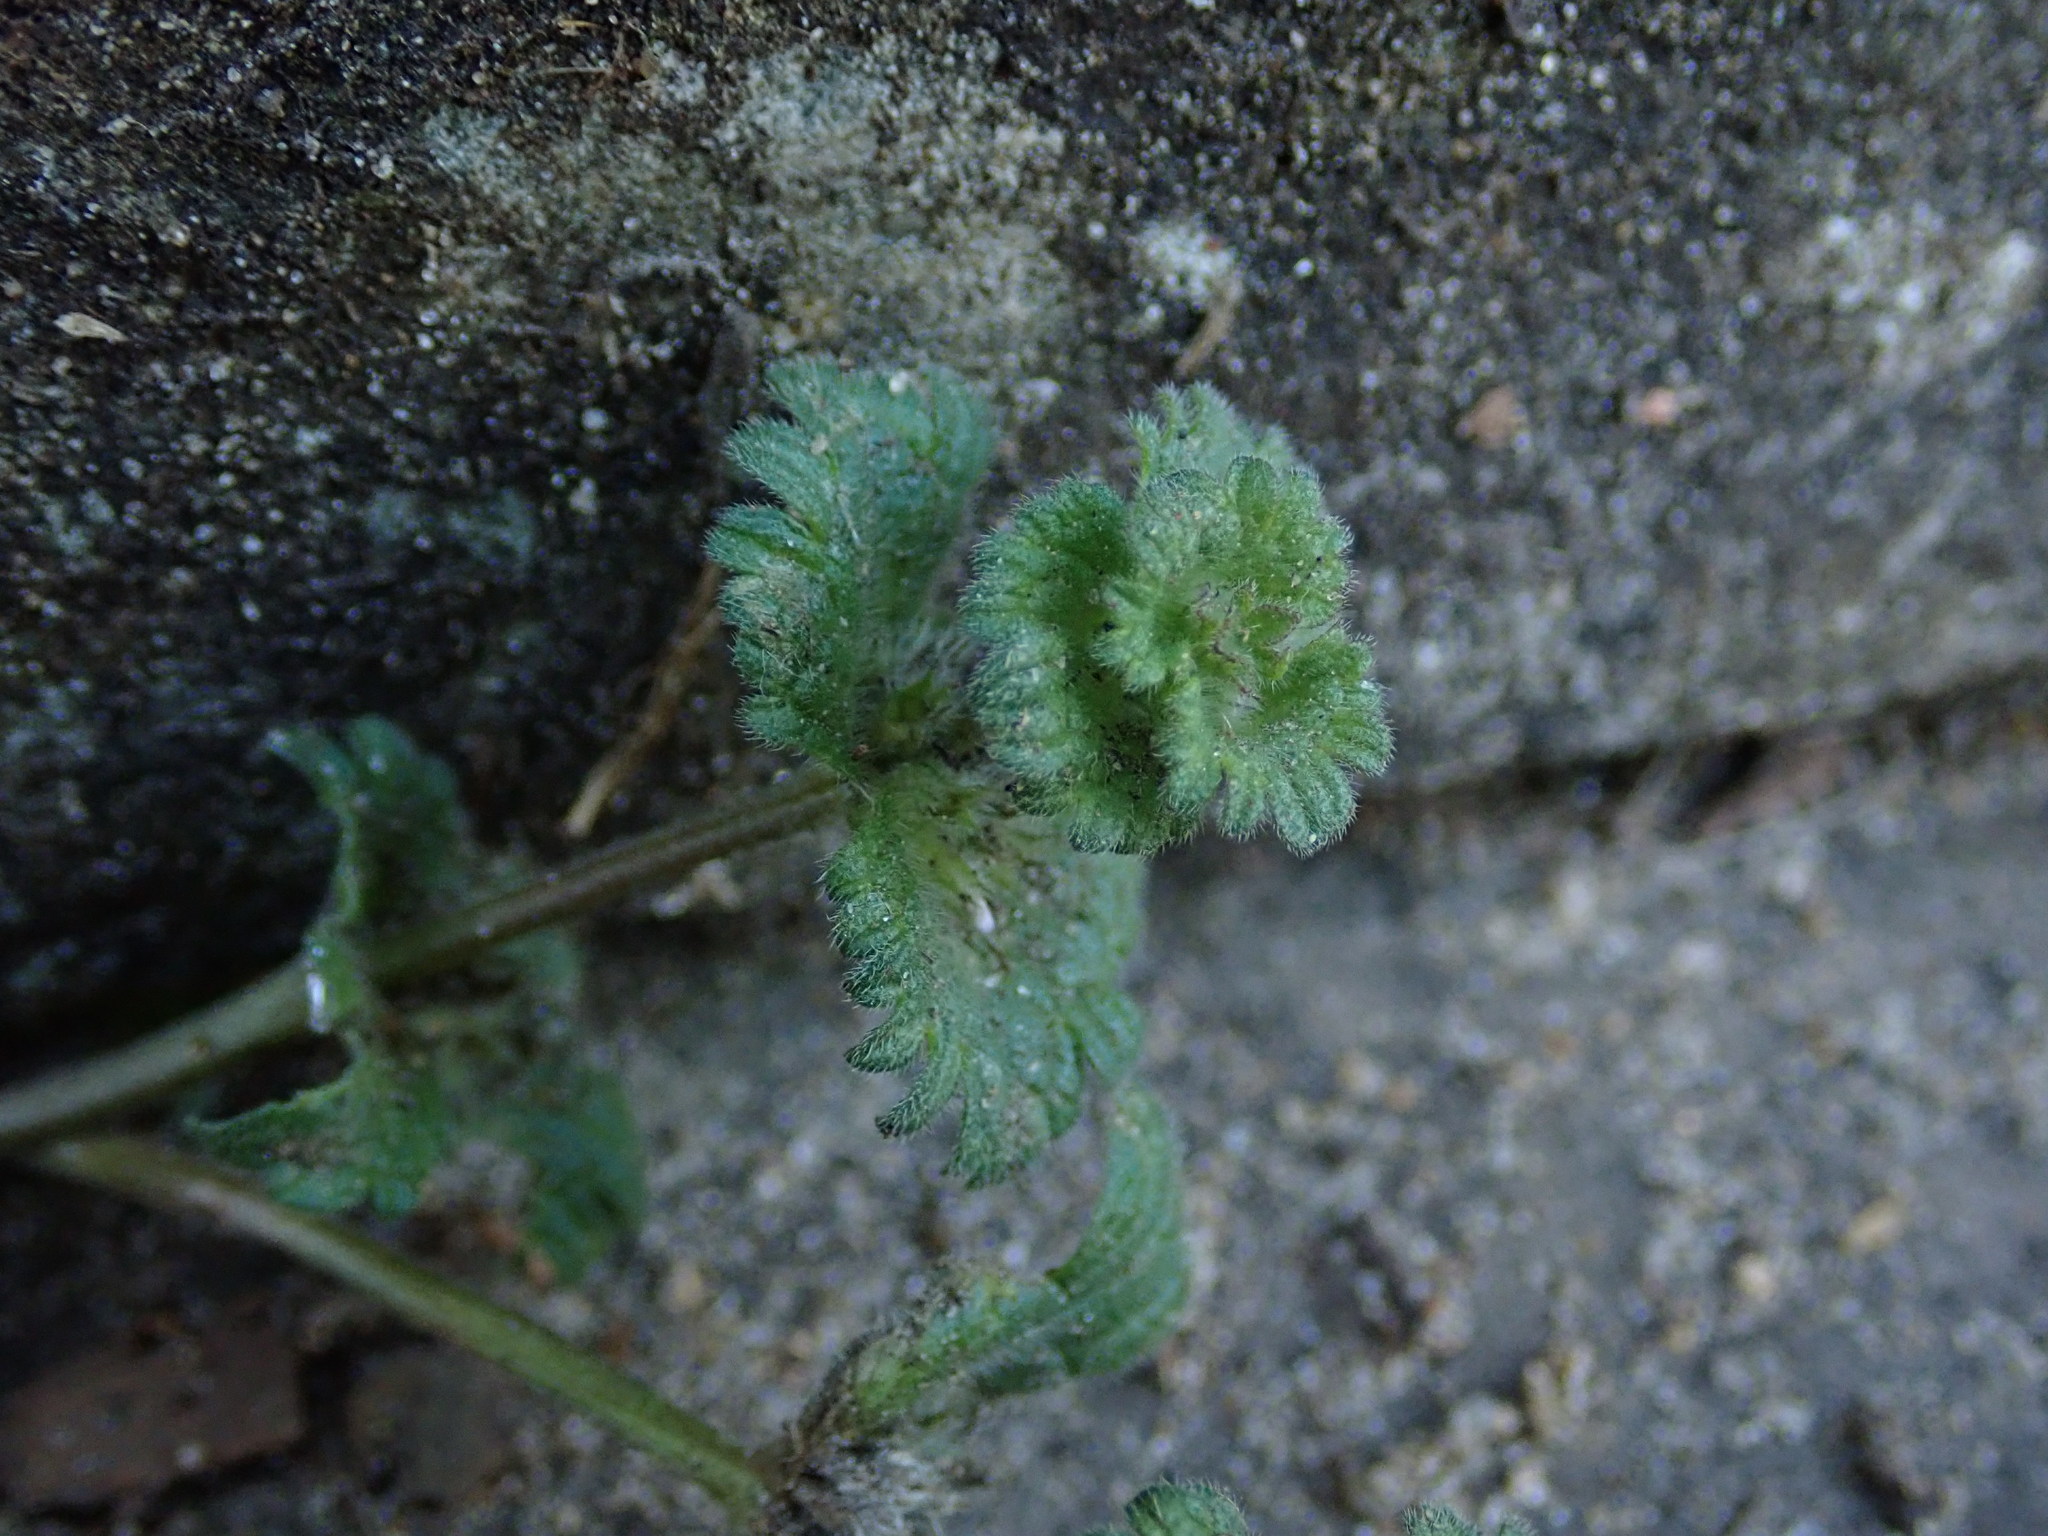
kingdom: Plantae
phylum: Tracheophyta
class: Magnoliopsida
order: Lamiales
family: Lamiaceae
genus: Lamium
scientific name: Lamium amplexicaule
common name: Henbit dead-nettle
